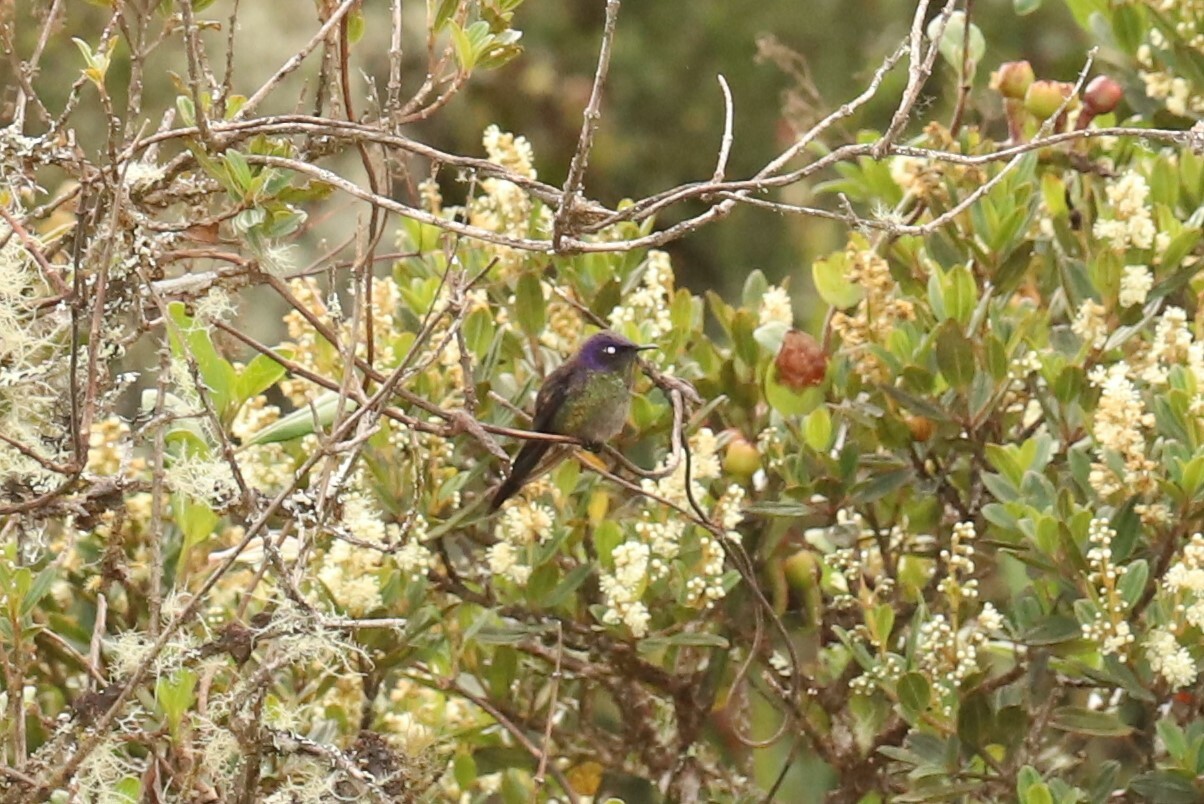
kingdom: Animalia
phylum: Chordata
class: Aves
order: Apodiformes
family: Trochilidae
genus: Ramphomicron
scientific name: Ramphomicron microrhynchum
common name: Purple-backed thornbill
